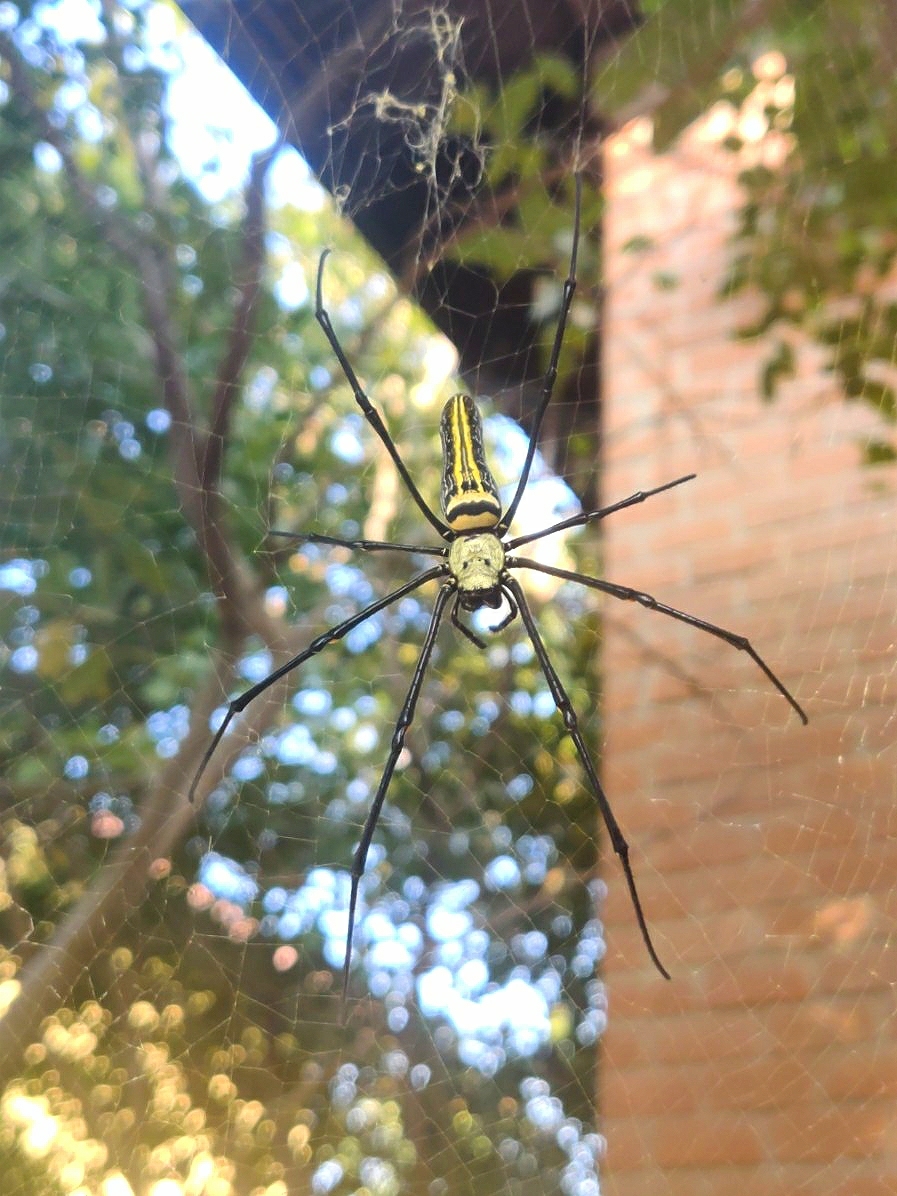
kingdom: Animalia
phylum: Arthropoda
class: Arachnida
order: Araneae
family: Araneidae
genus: Nephila
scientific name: Nephila pilipes
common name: Giant golden orb weaver
